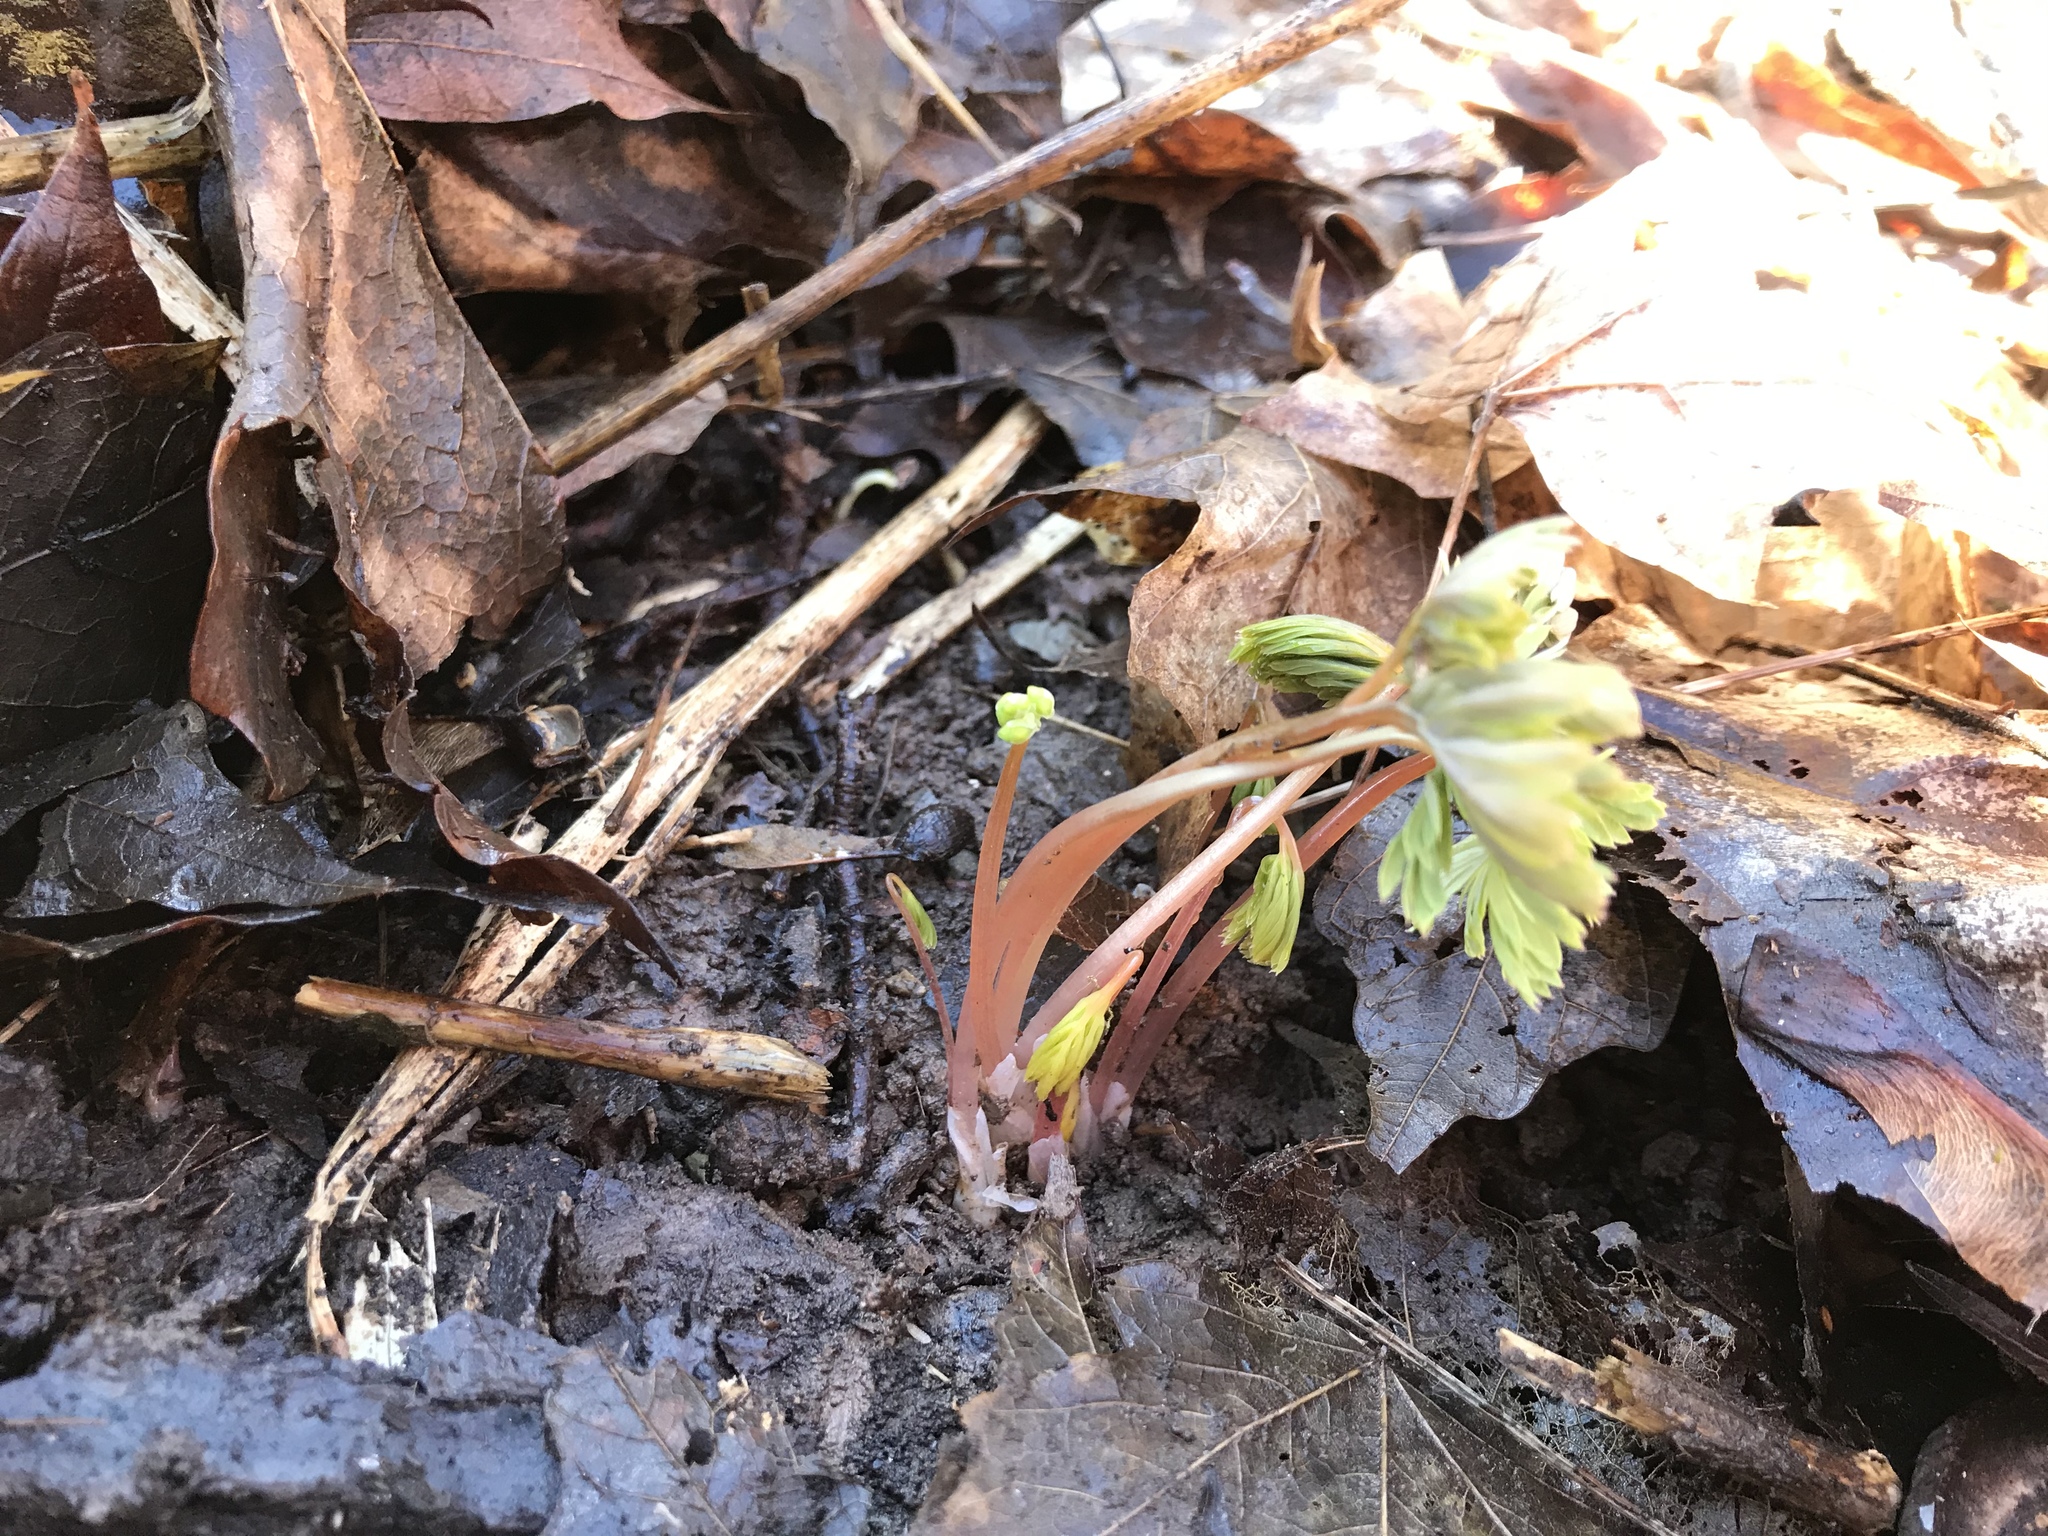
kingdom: Plantae
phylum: Tracheophyta
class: Magnoliopsida
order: Ranunculales
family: Papaveraceae
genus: Dicentra
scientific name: Dicentra cucullaria
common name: Dutchman's breeches
